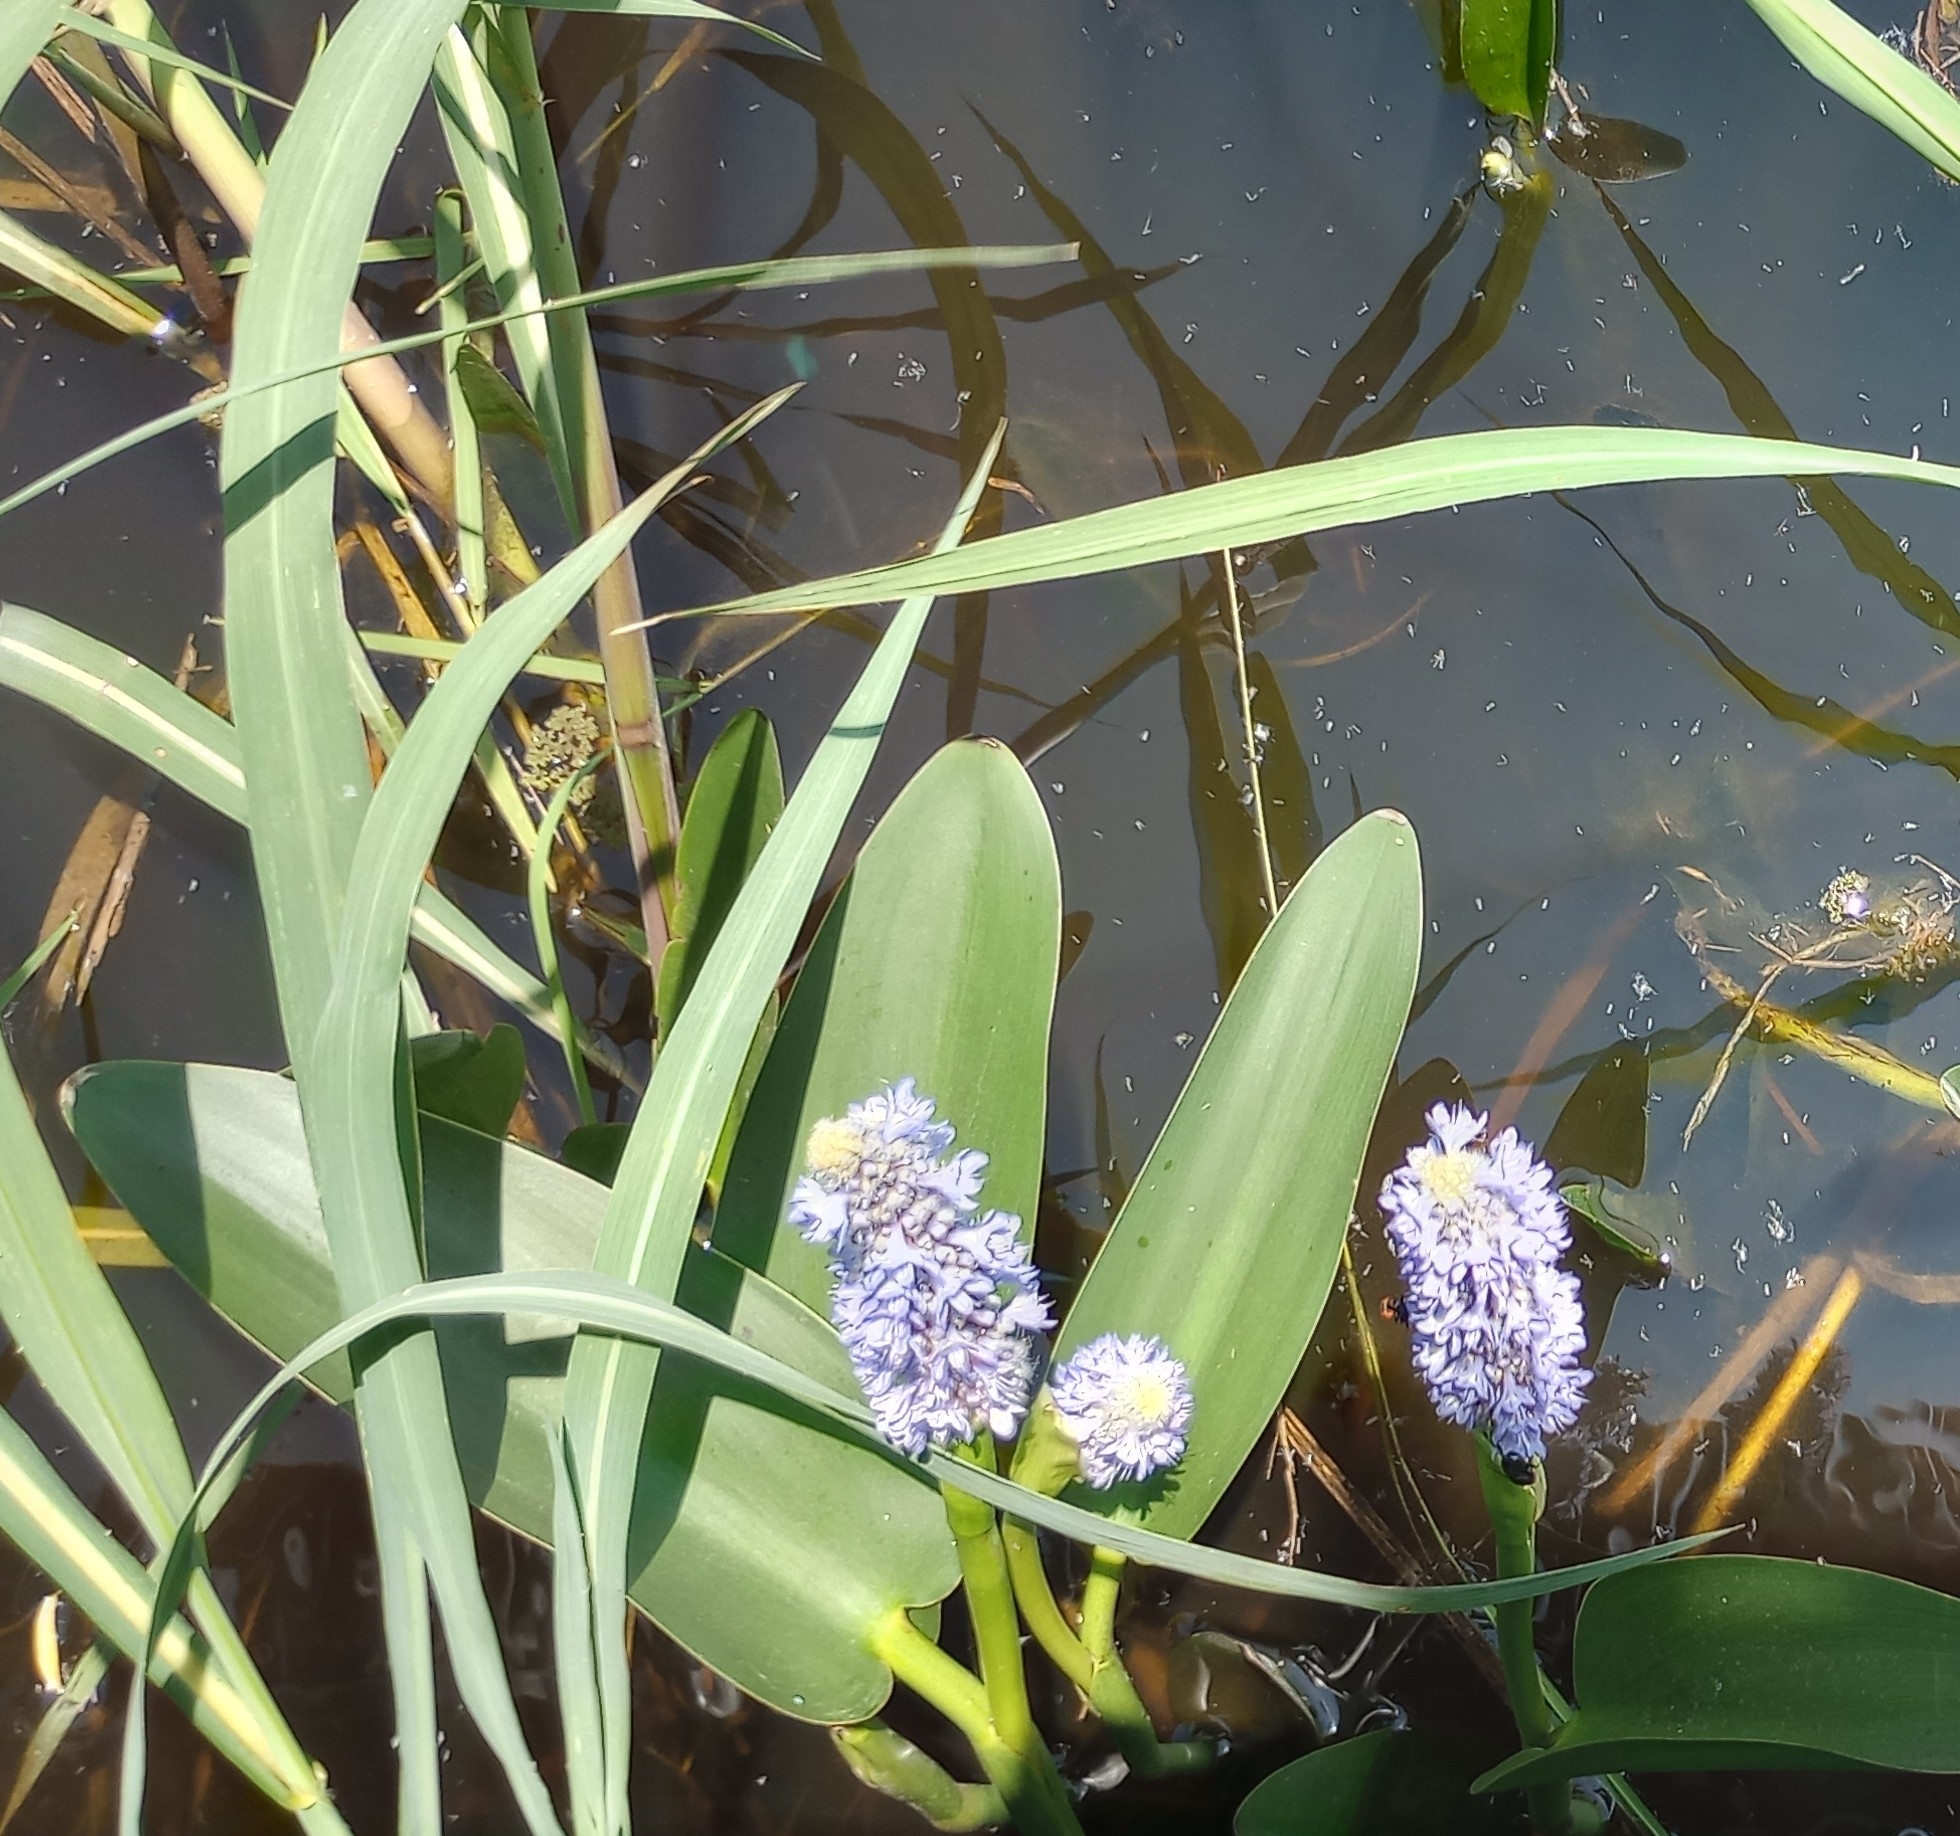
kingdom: Plantae
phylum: Tracheophyta
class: Liliopsida
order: Commelinales
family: Pontederiaceae
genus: Pontederia
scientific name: Pontederia cordata
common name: Pickerelweed
